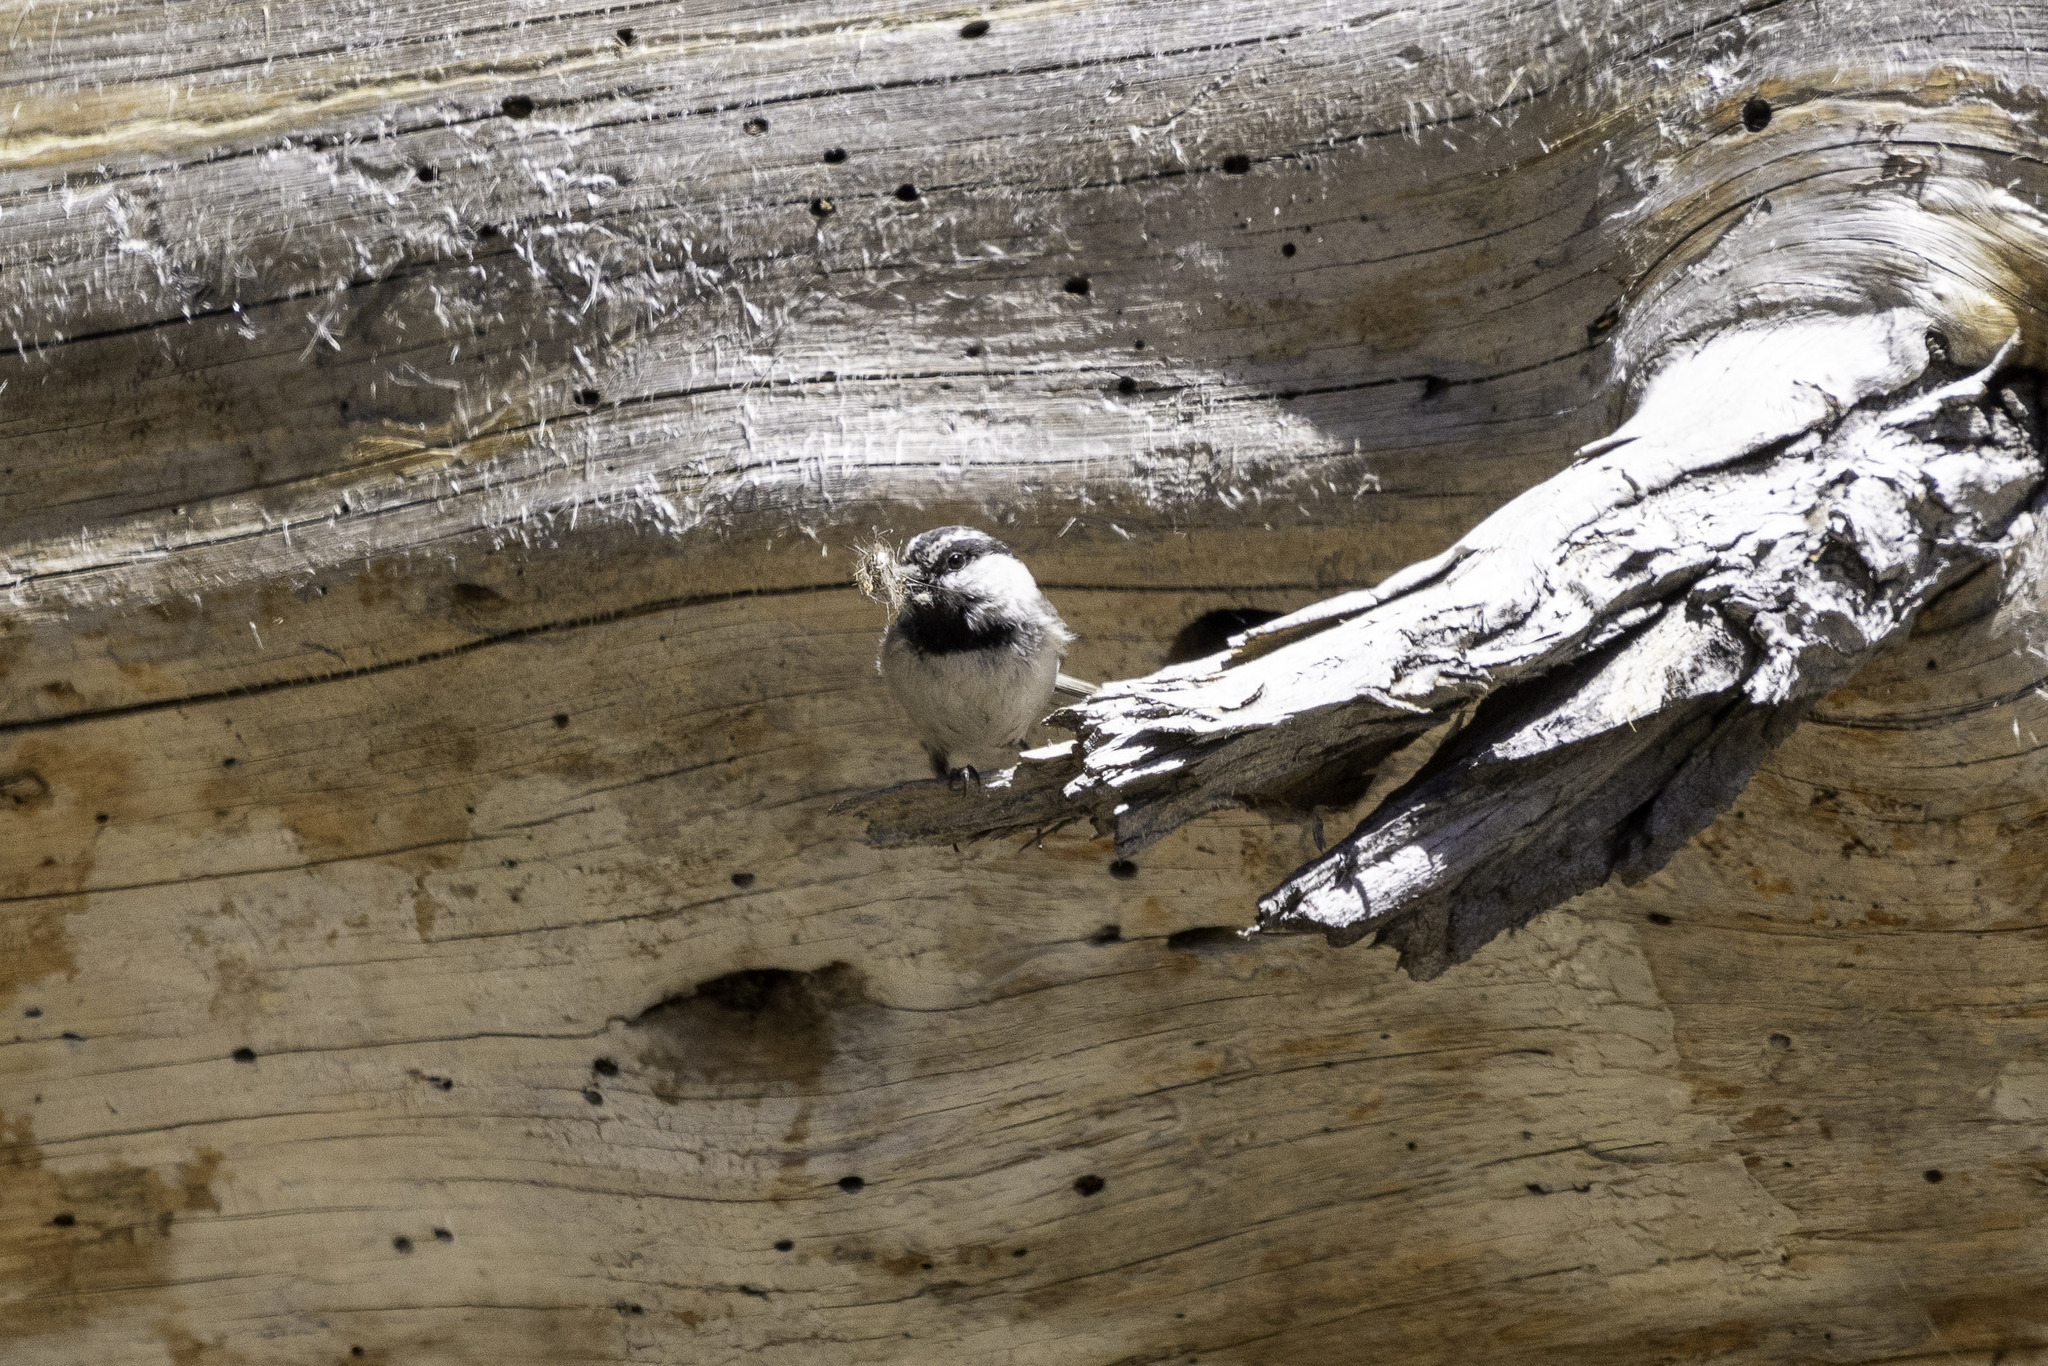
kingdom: Animalia
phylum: Chordata
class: Aves
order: Passeriformes
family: Paridae
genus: Poecile
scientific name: Poecile gambeli
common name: Mountain chickadee
